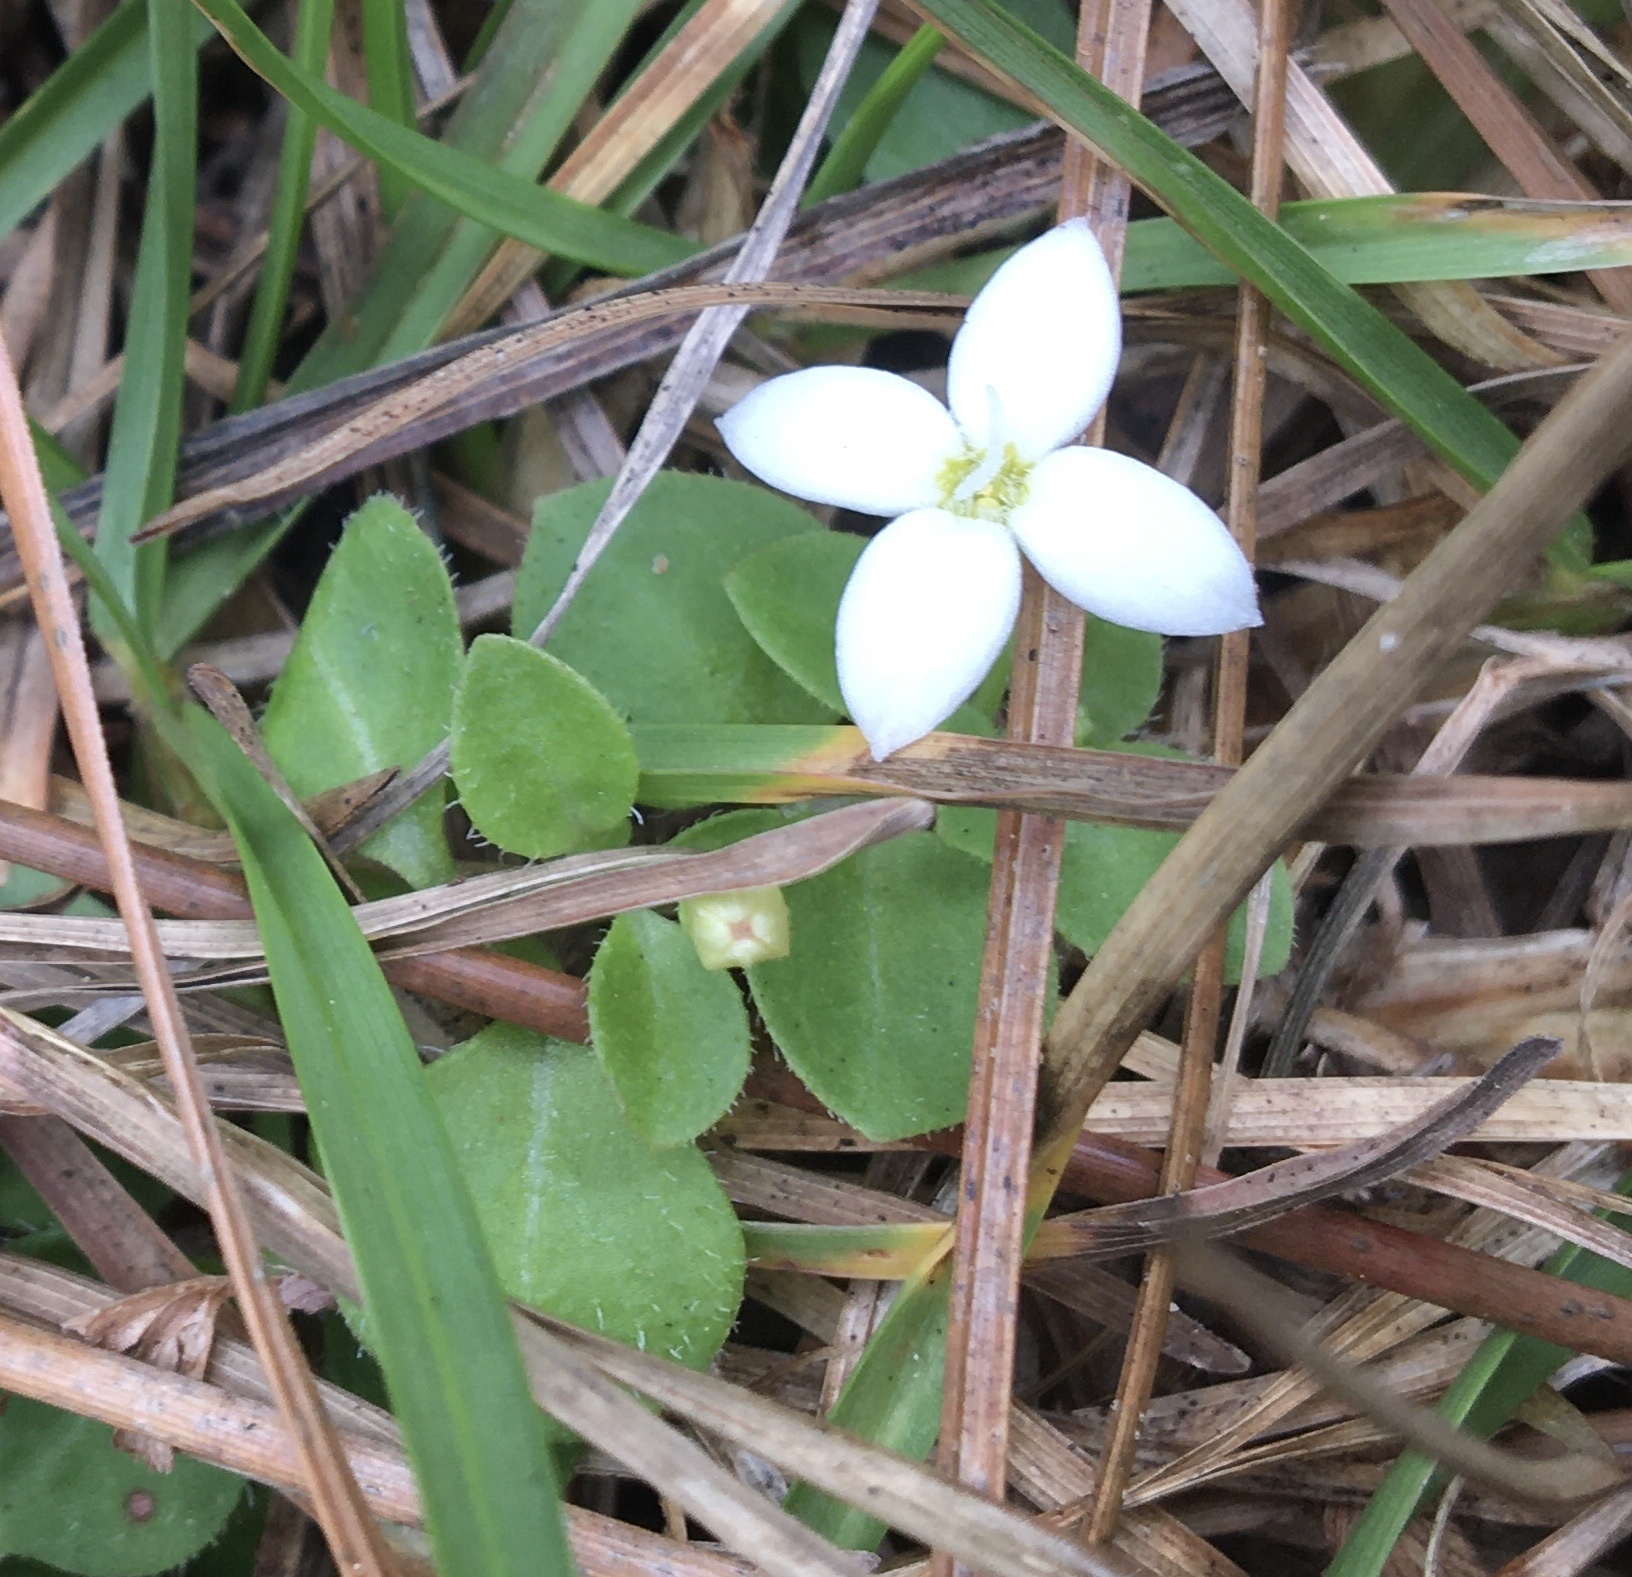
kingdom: Plantae
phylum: Tracheophyta
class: Magnoliopsida
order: Gentianales
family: Rubiaceae
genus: Houstonia
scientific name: Houstonia procumbens
